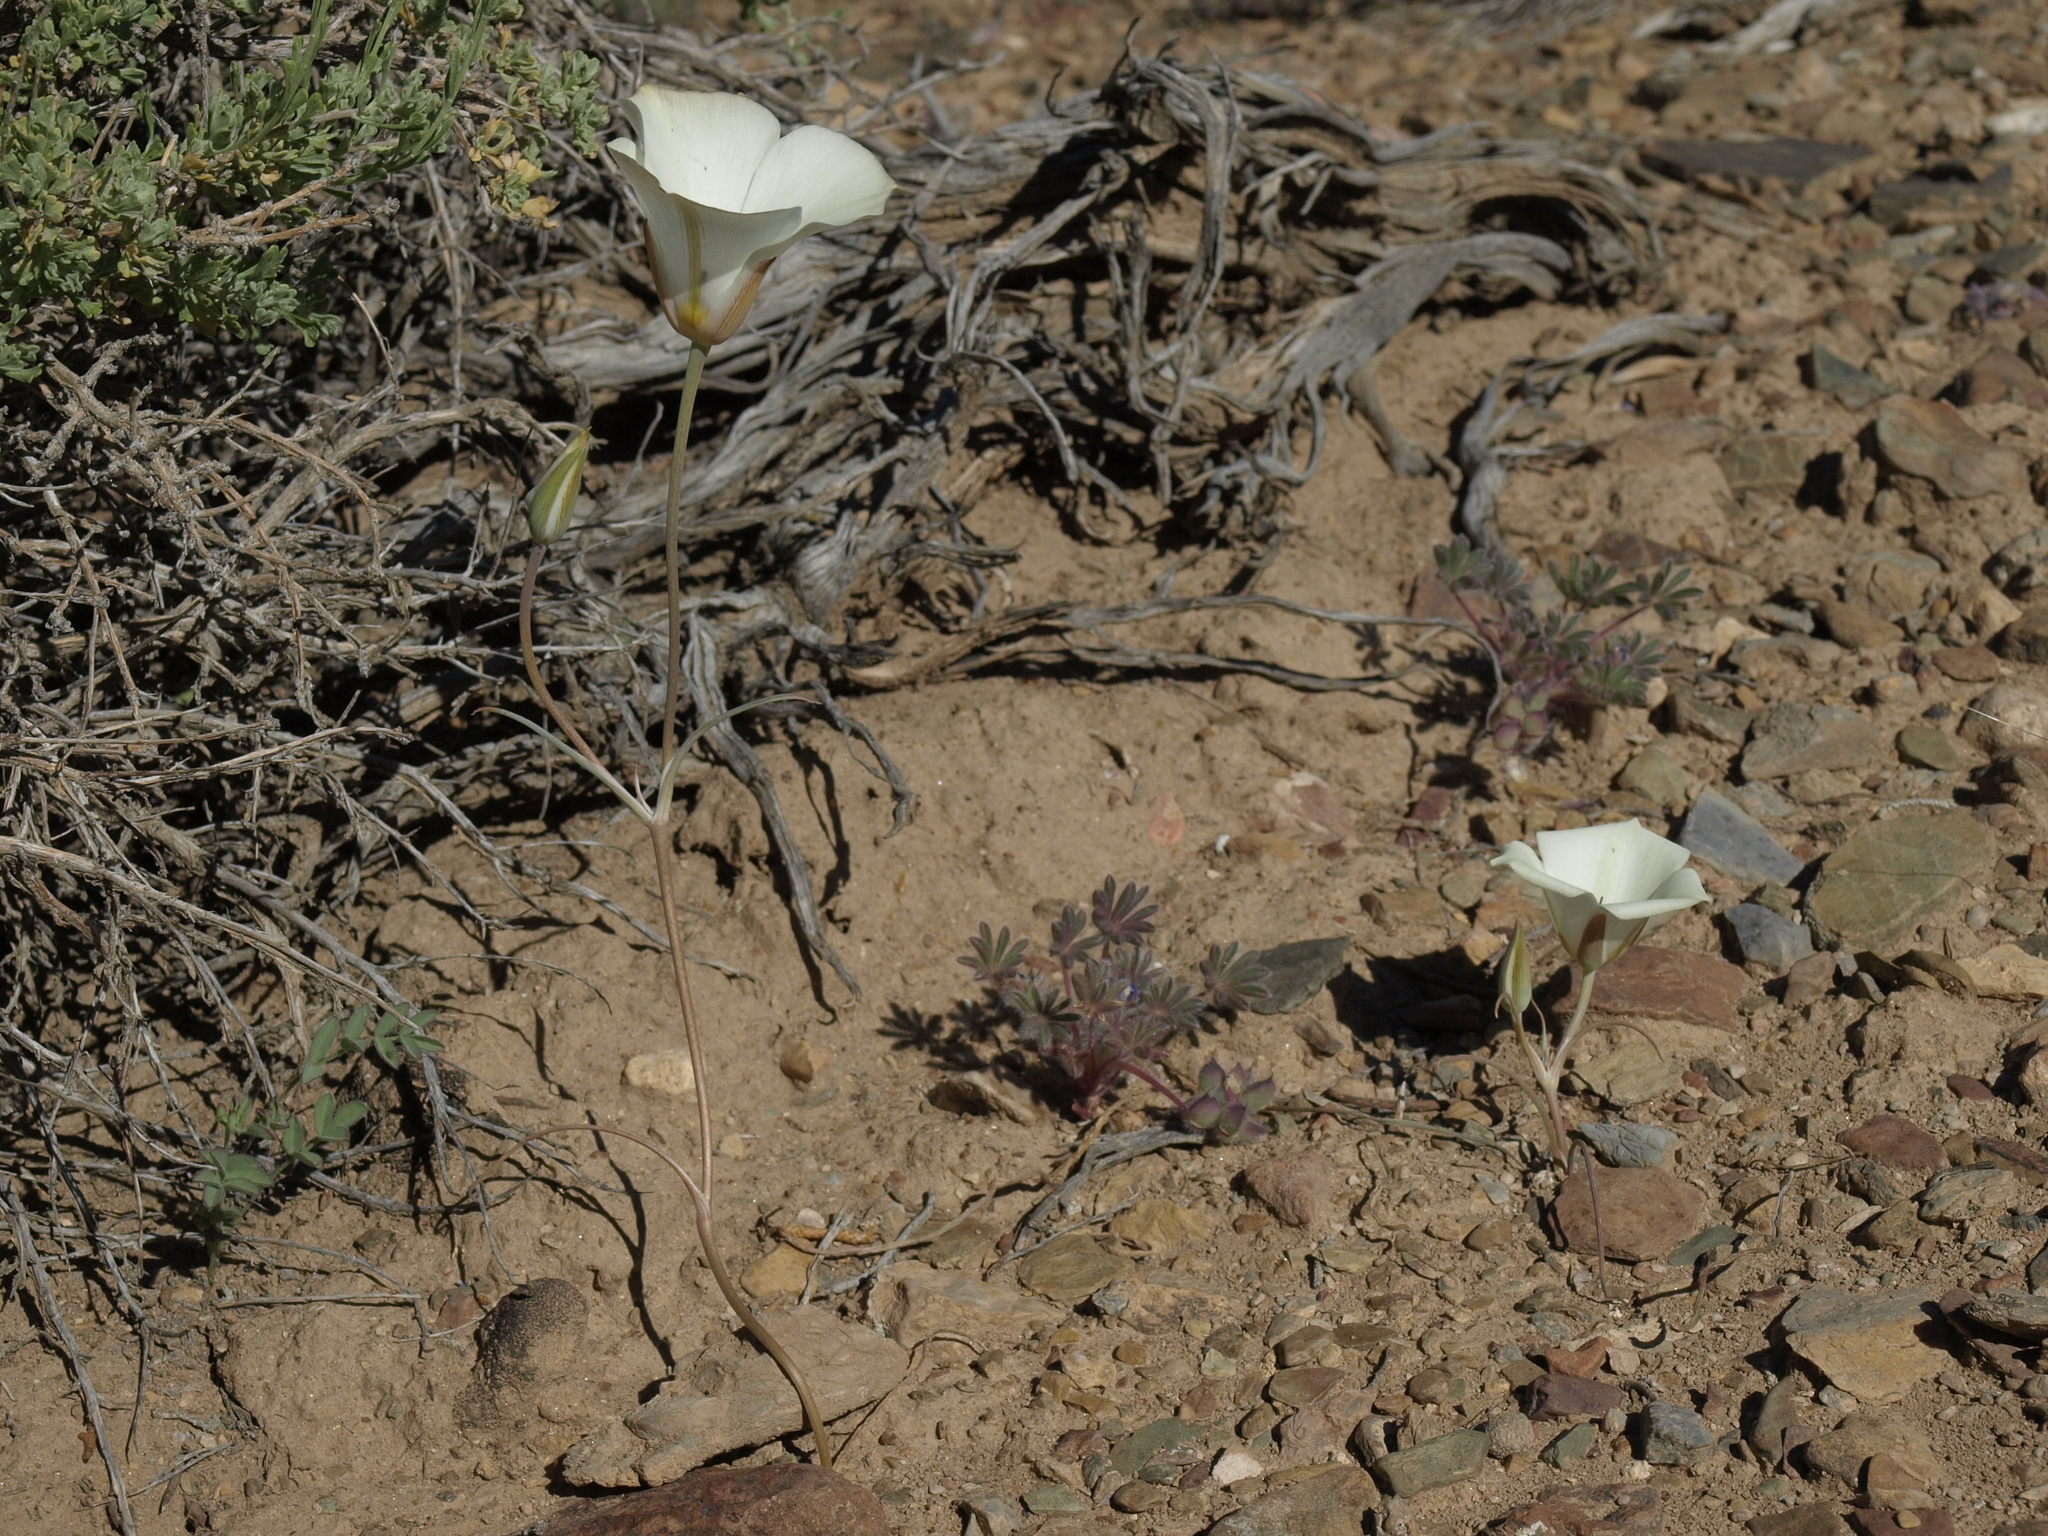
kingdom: Plantae
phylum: Tracheophyta
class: Liliopsida
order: Liliales
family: Liliaceae
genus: Calochortus
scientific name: Calochortus bruneaunis
